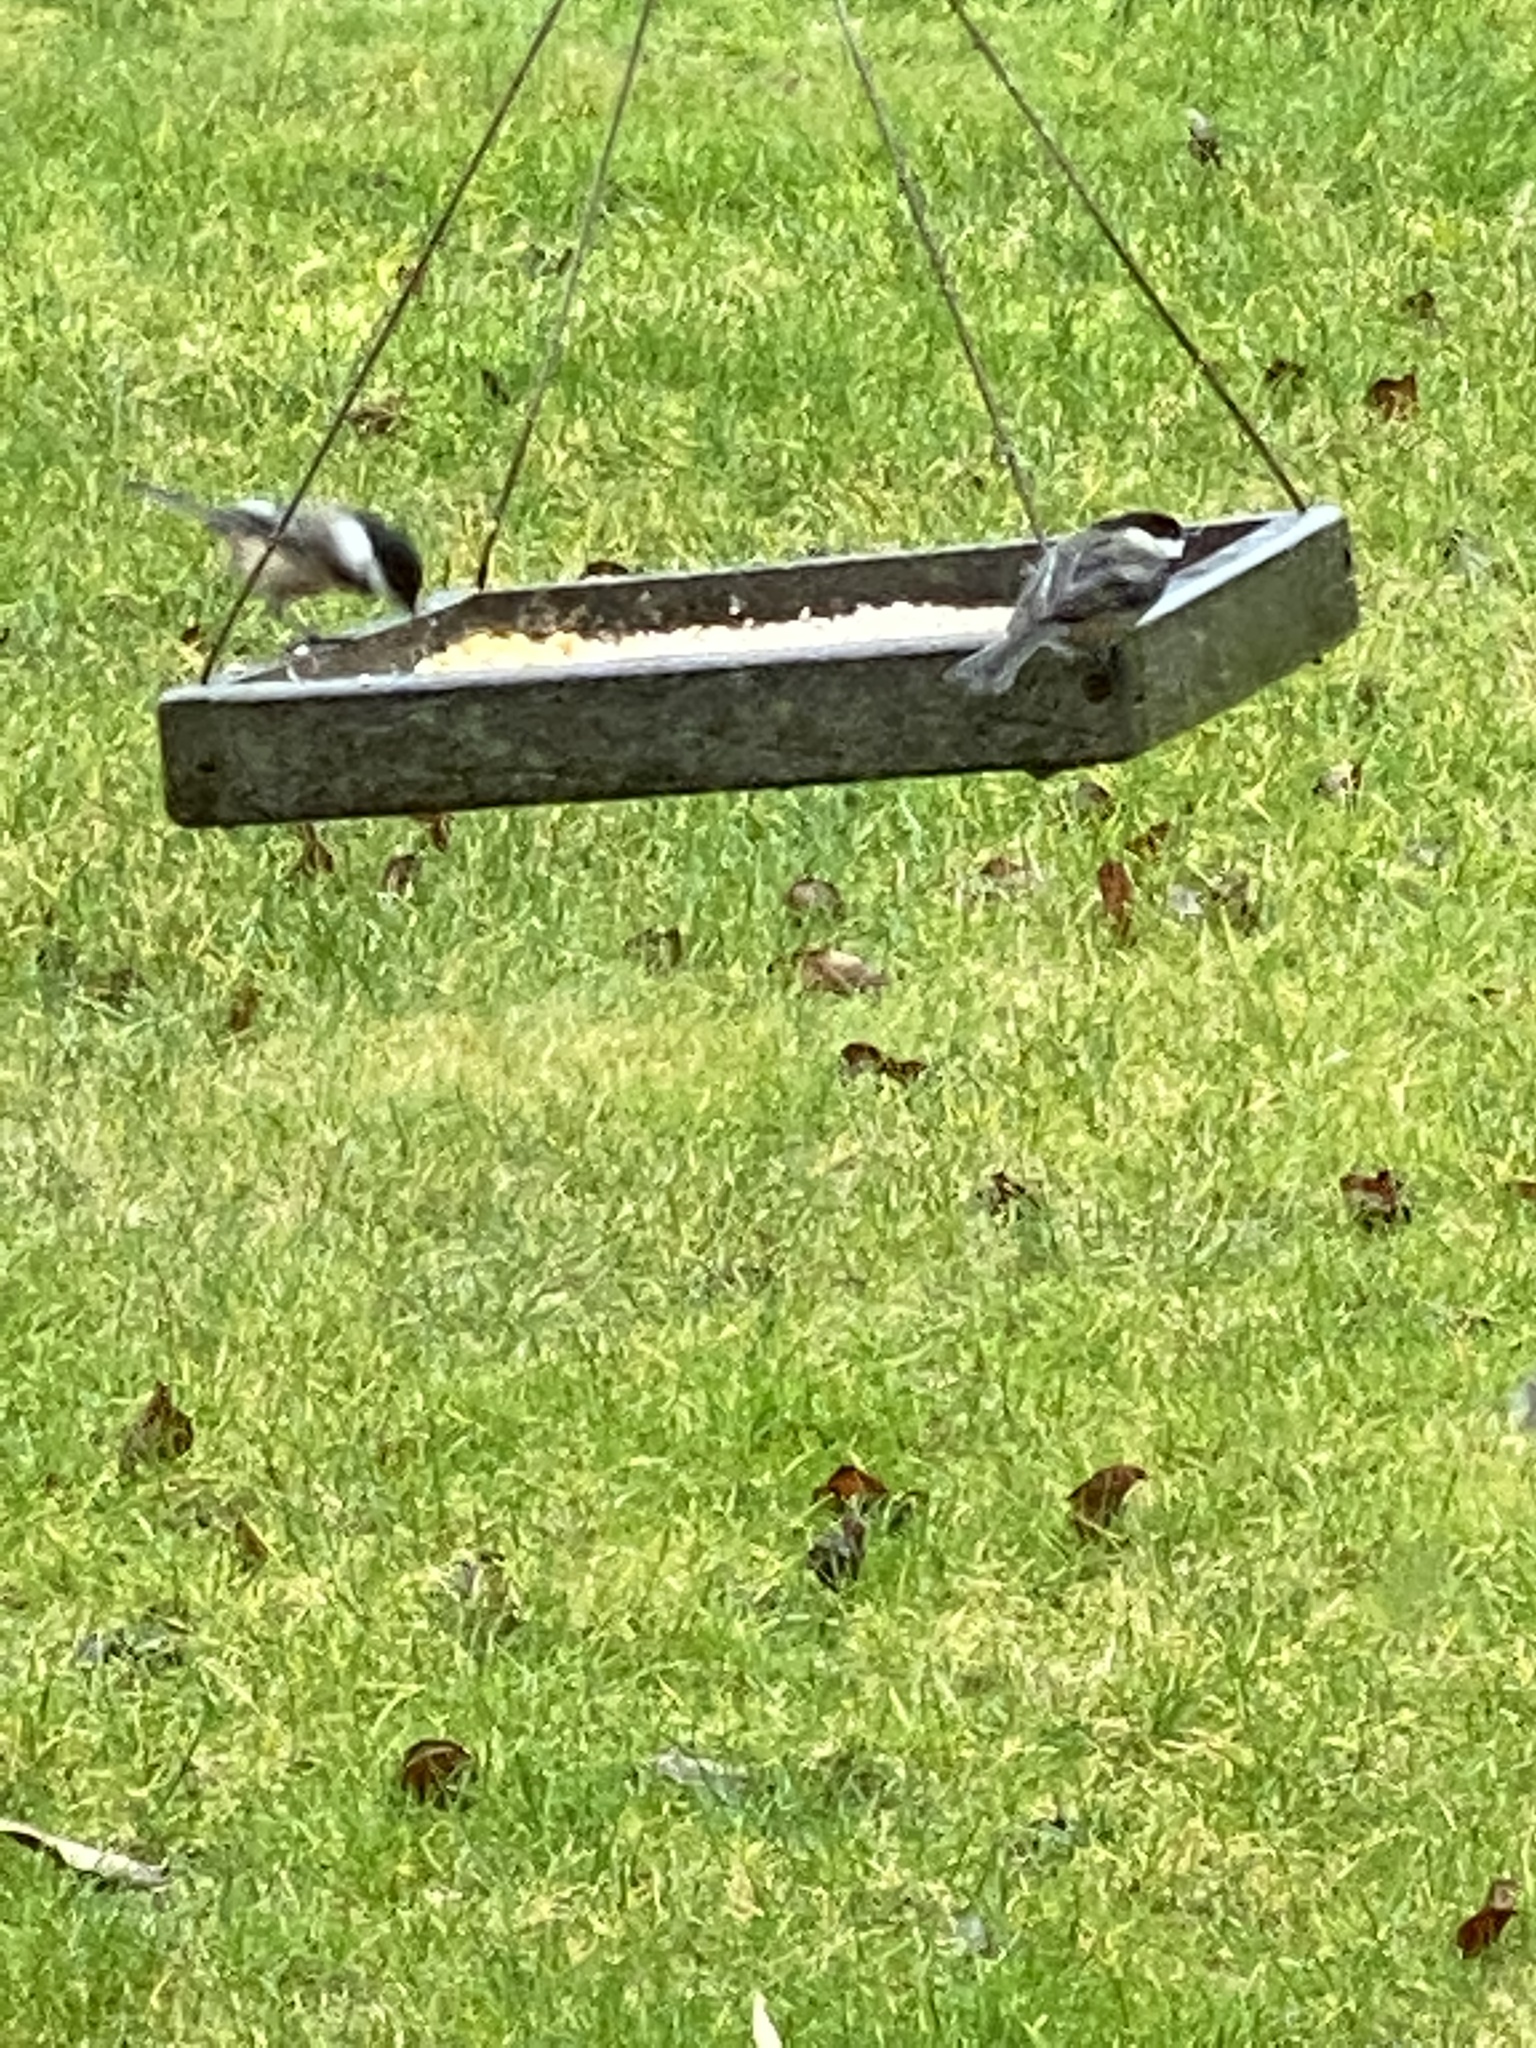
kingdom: Animalia
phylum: Chordata
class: Aves
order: Passeriformes
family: Paridae
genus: Poecile
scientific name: Poecile atricapillus
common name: Black-capped chickadee
